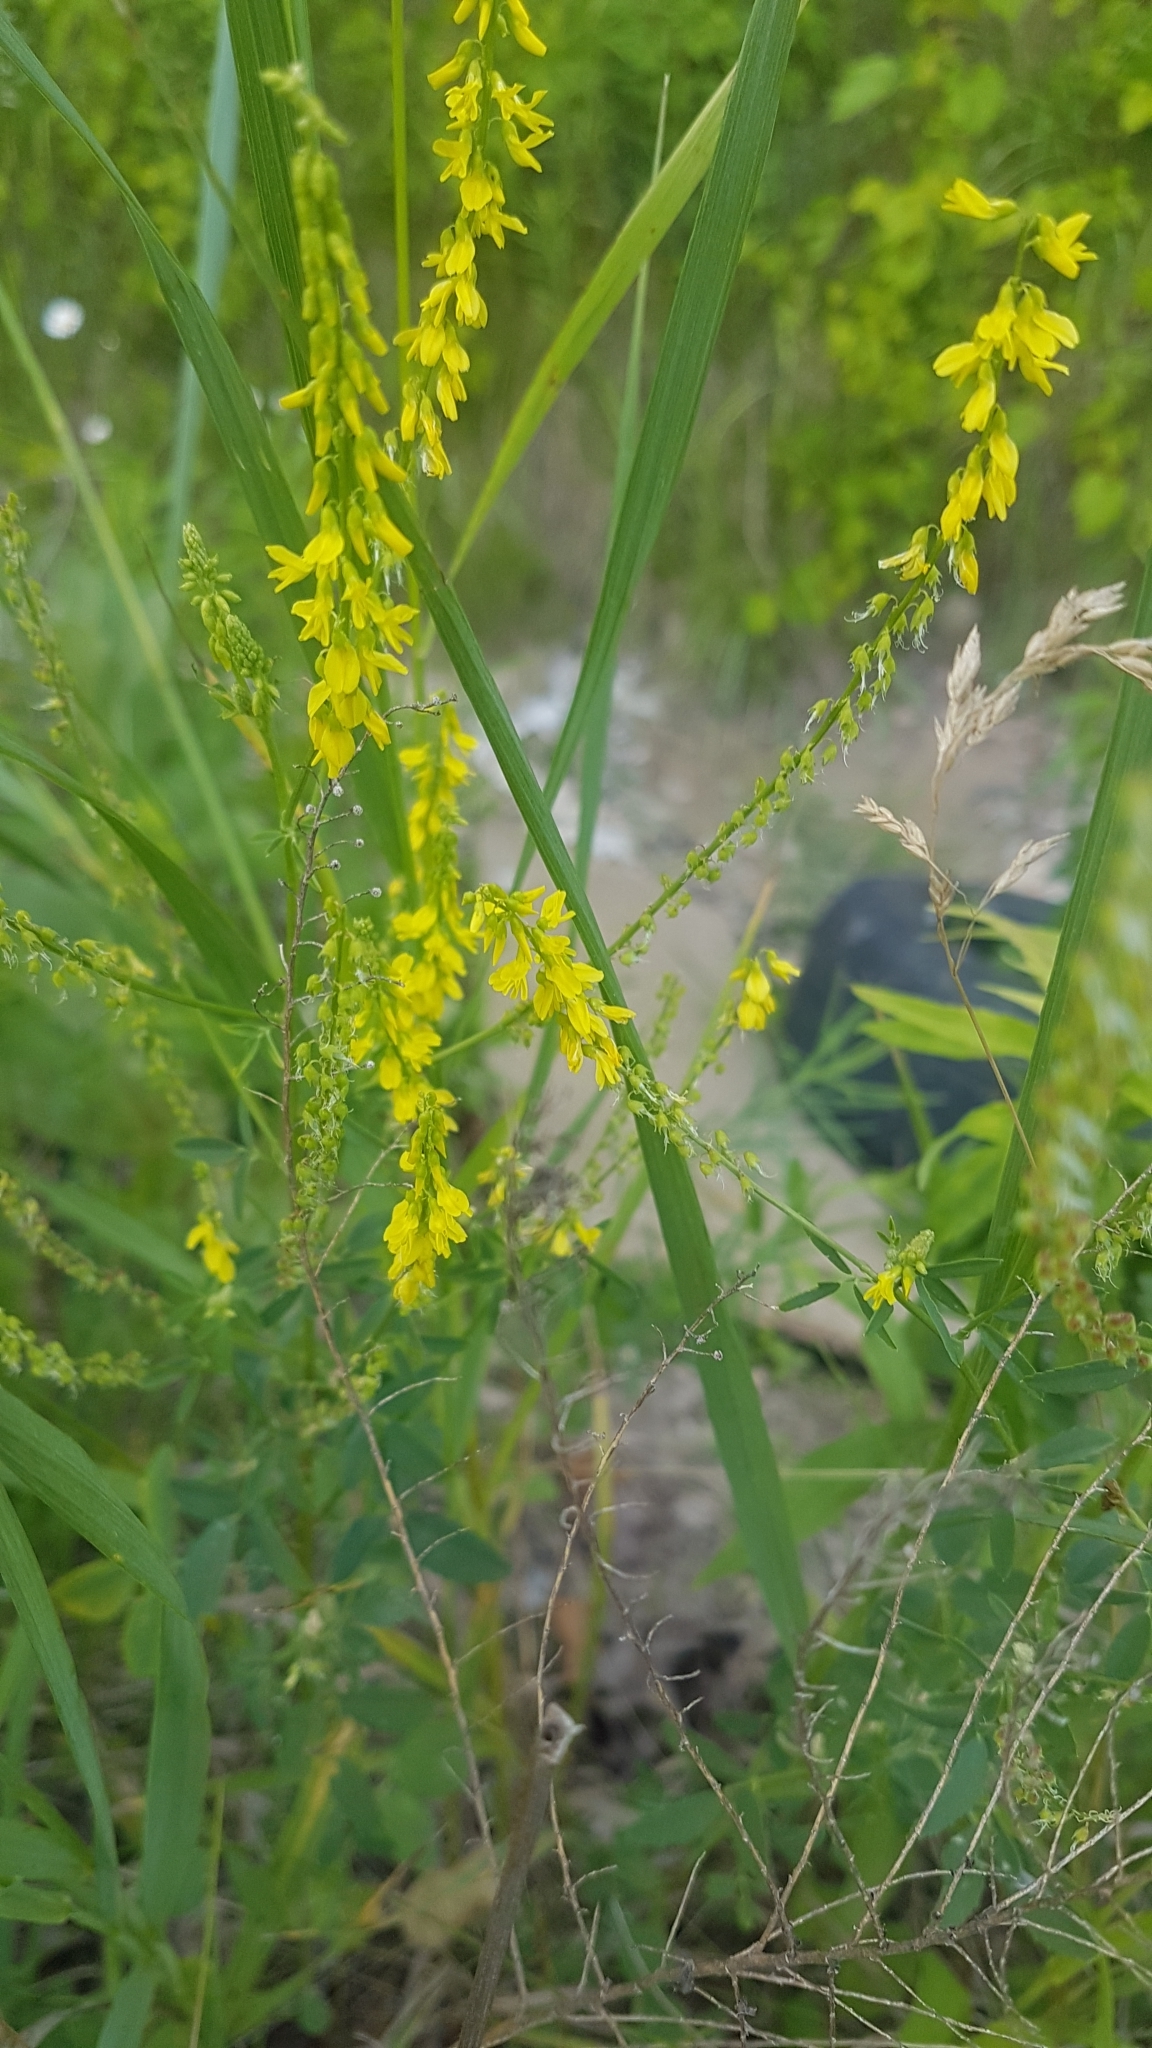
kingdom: Plantae
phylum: Tracheophyta
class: Magnoliopsida
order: Fabales
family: Fabaceae
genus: Melilotus
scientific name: Melilotus officinalis
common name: Sweetclover
